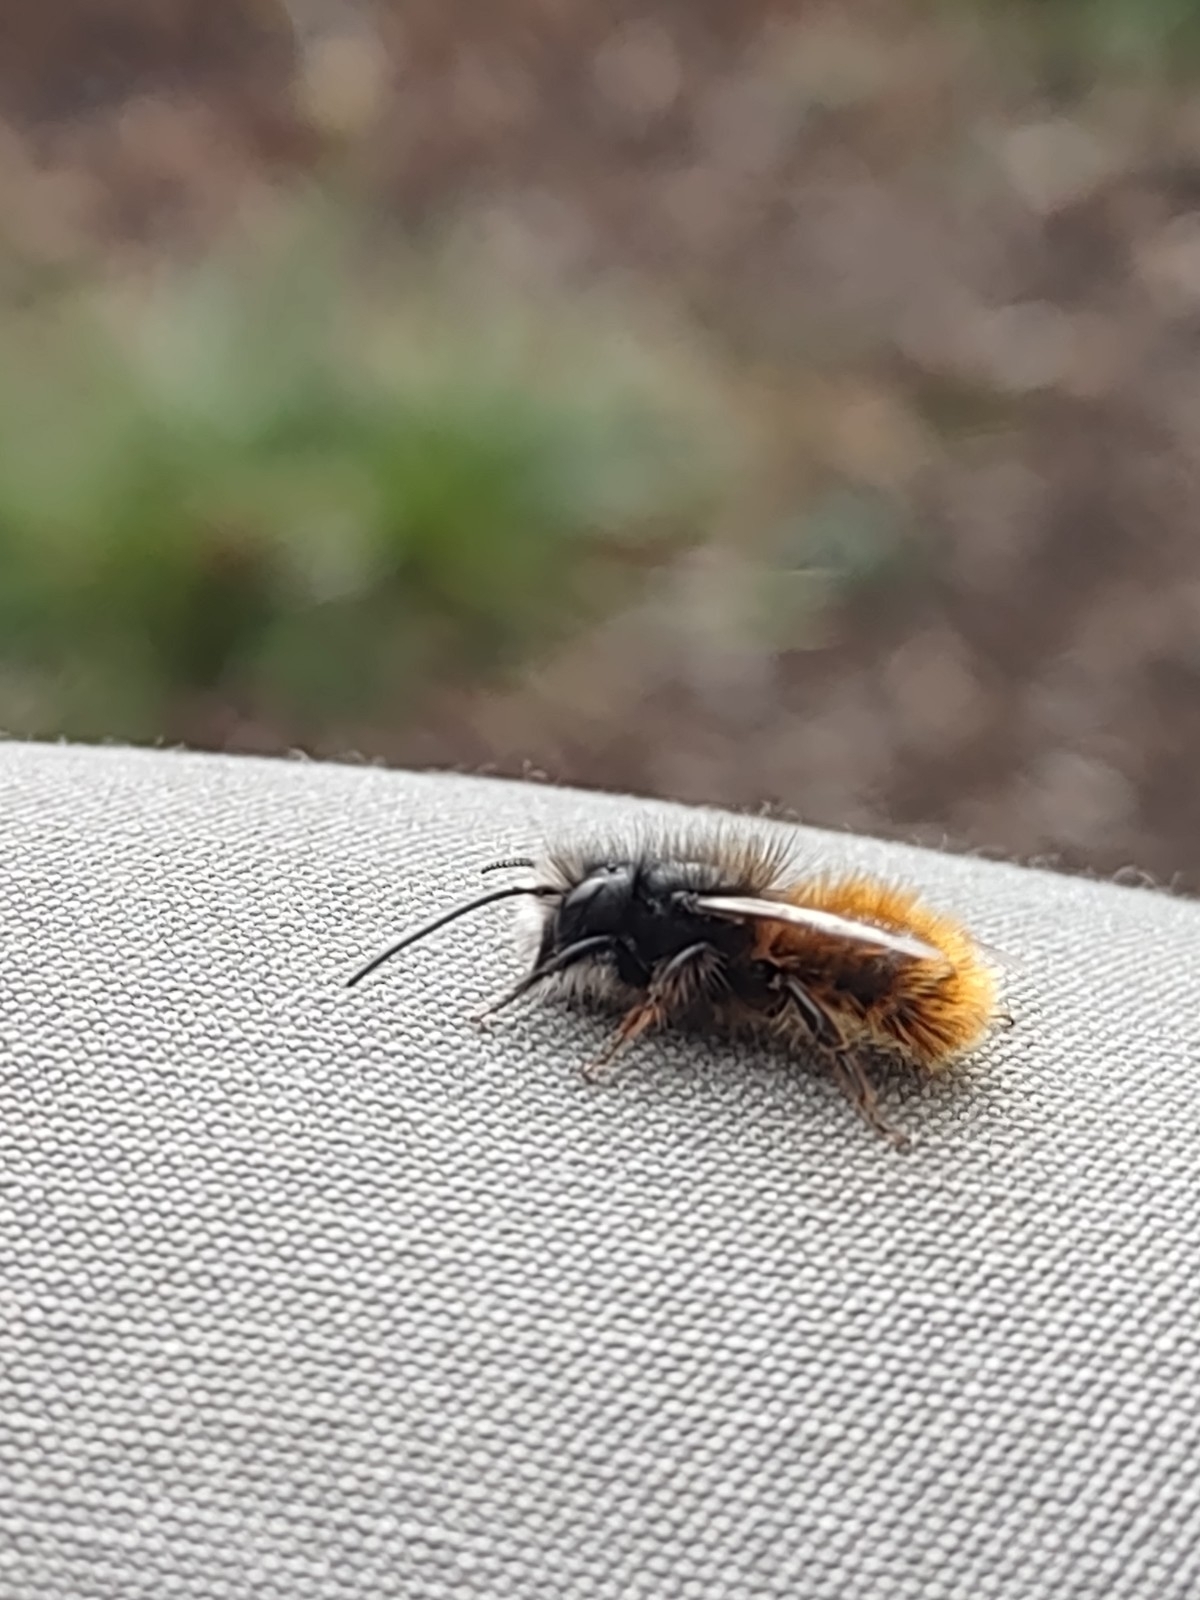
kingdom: Animalia
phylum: Arthropoda
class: Insecta
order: Hymenoptera
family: Megachilidae
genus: Osmia
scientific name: Osmia cornuta
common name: Mason bee
